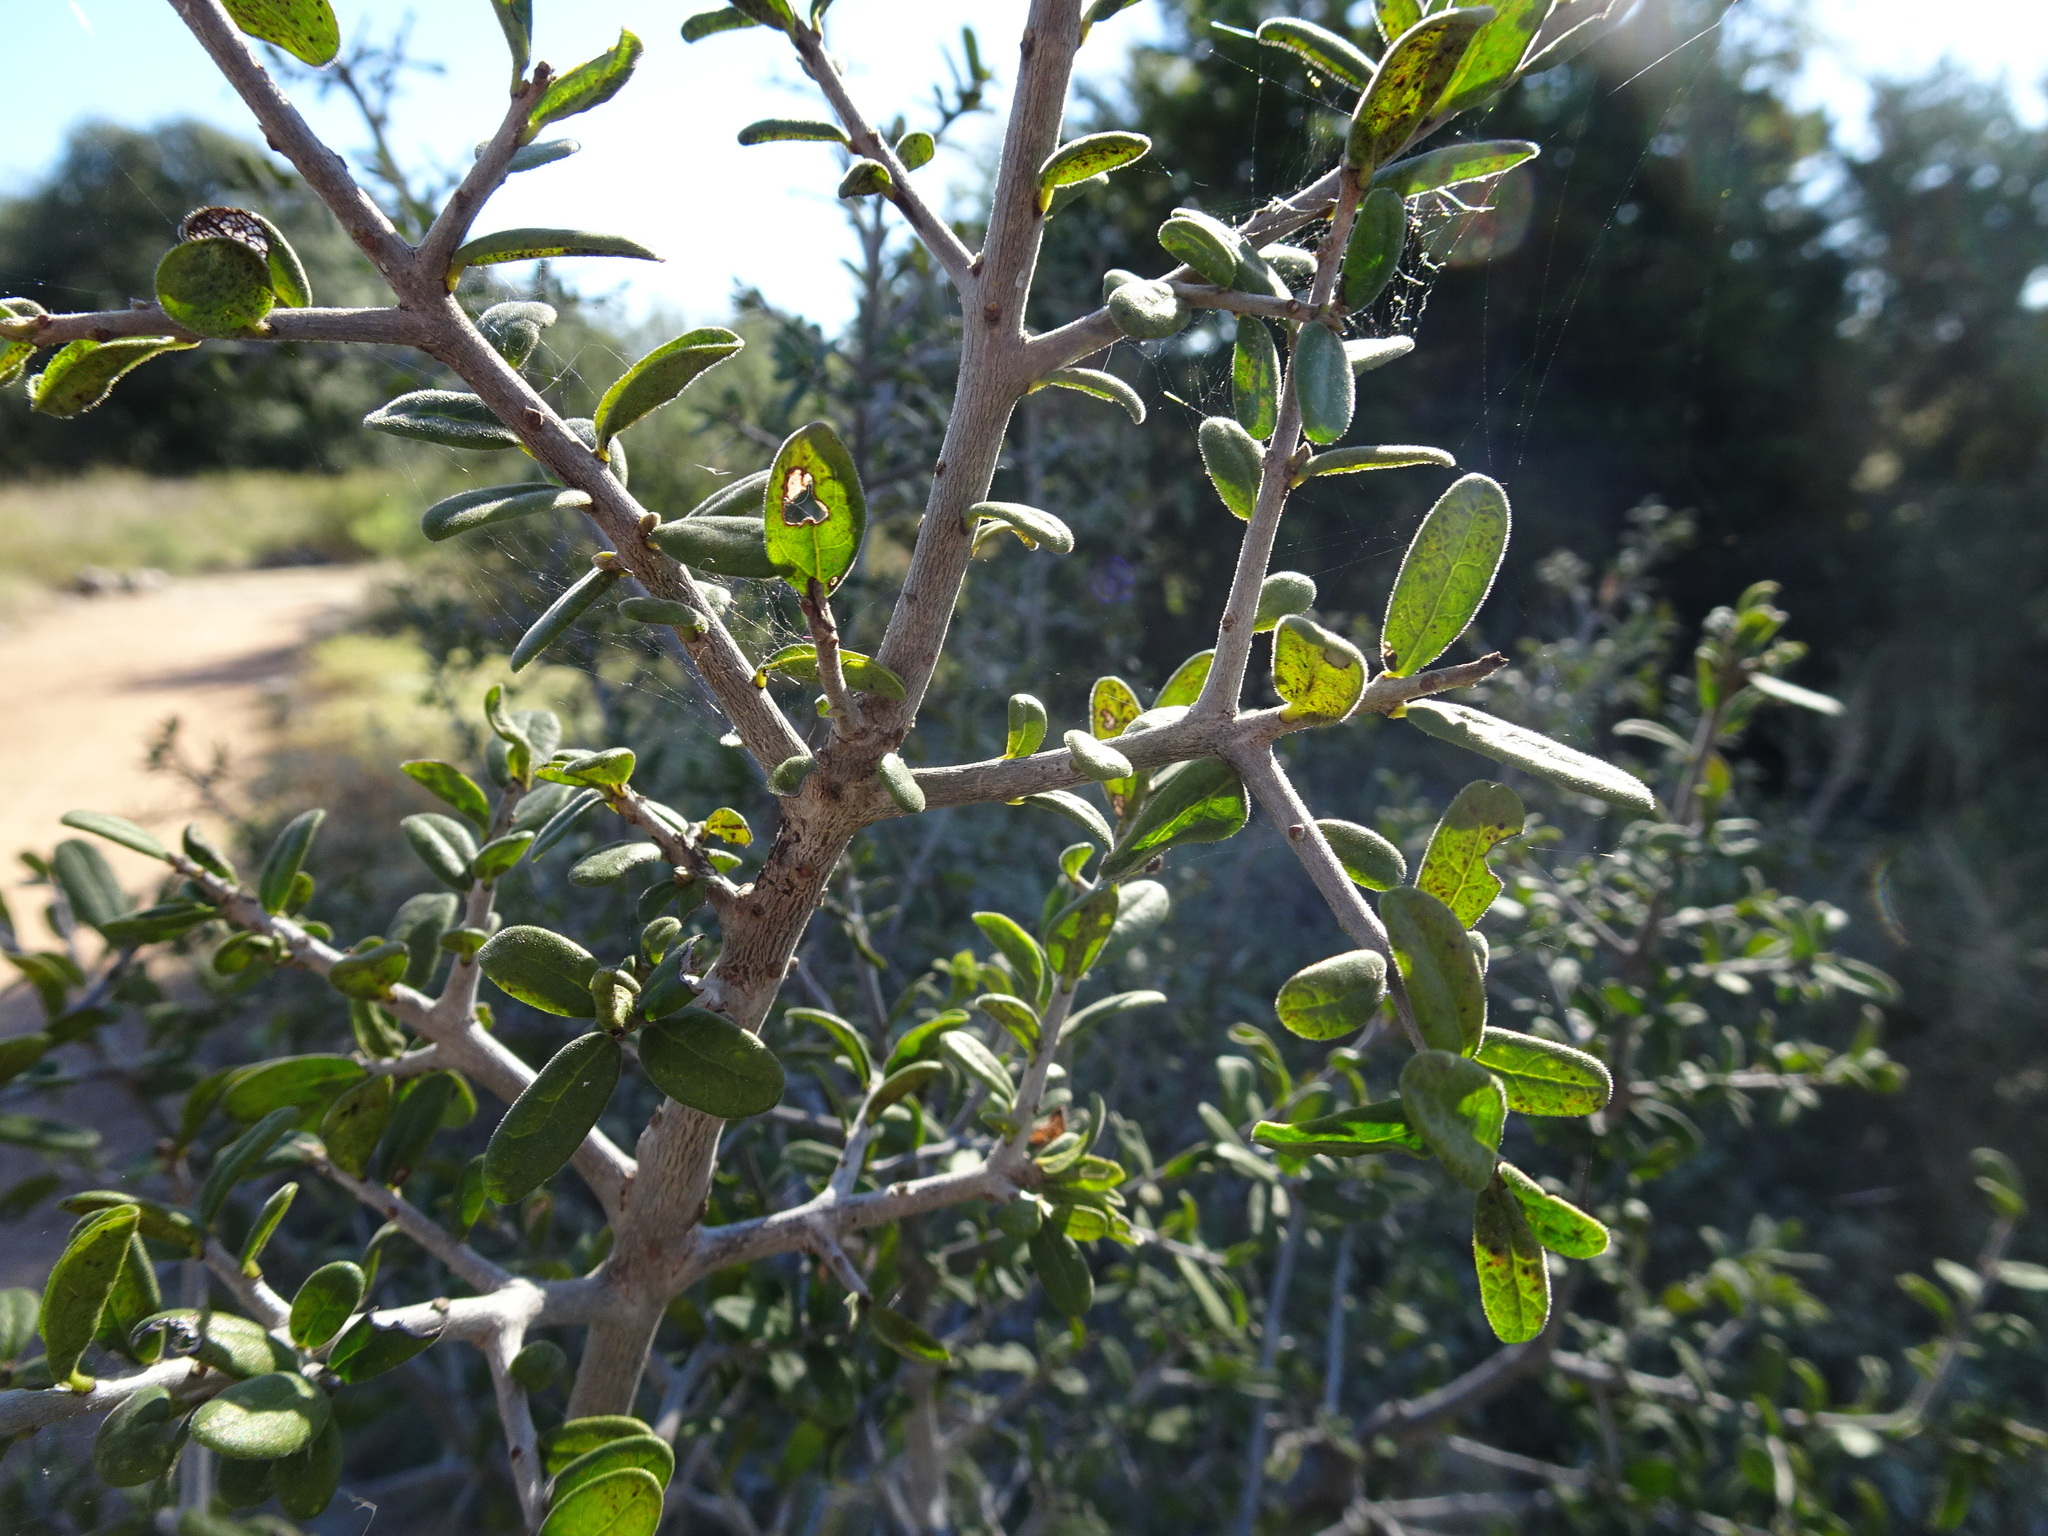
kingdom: Plantae
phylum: Tracheophyta
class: Magnoliopsida
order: Ericales
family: Ebenaceae
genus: Diospyros
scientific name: Diospyros texana
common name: Texas persimmon
